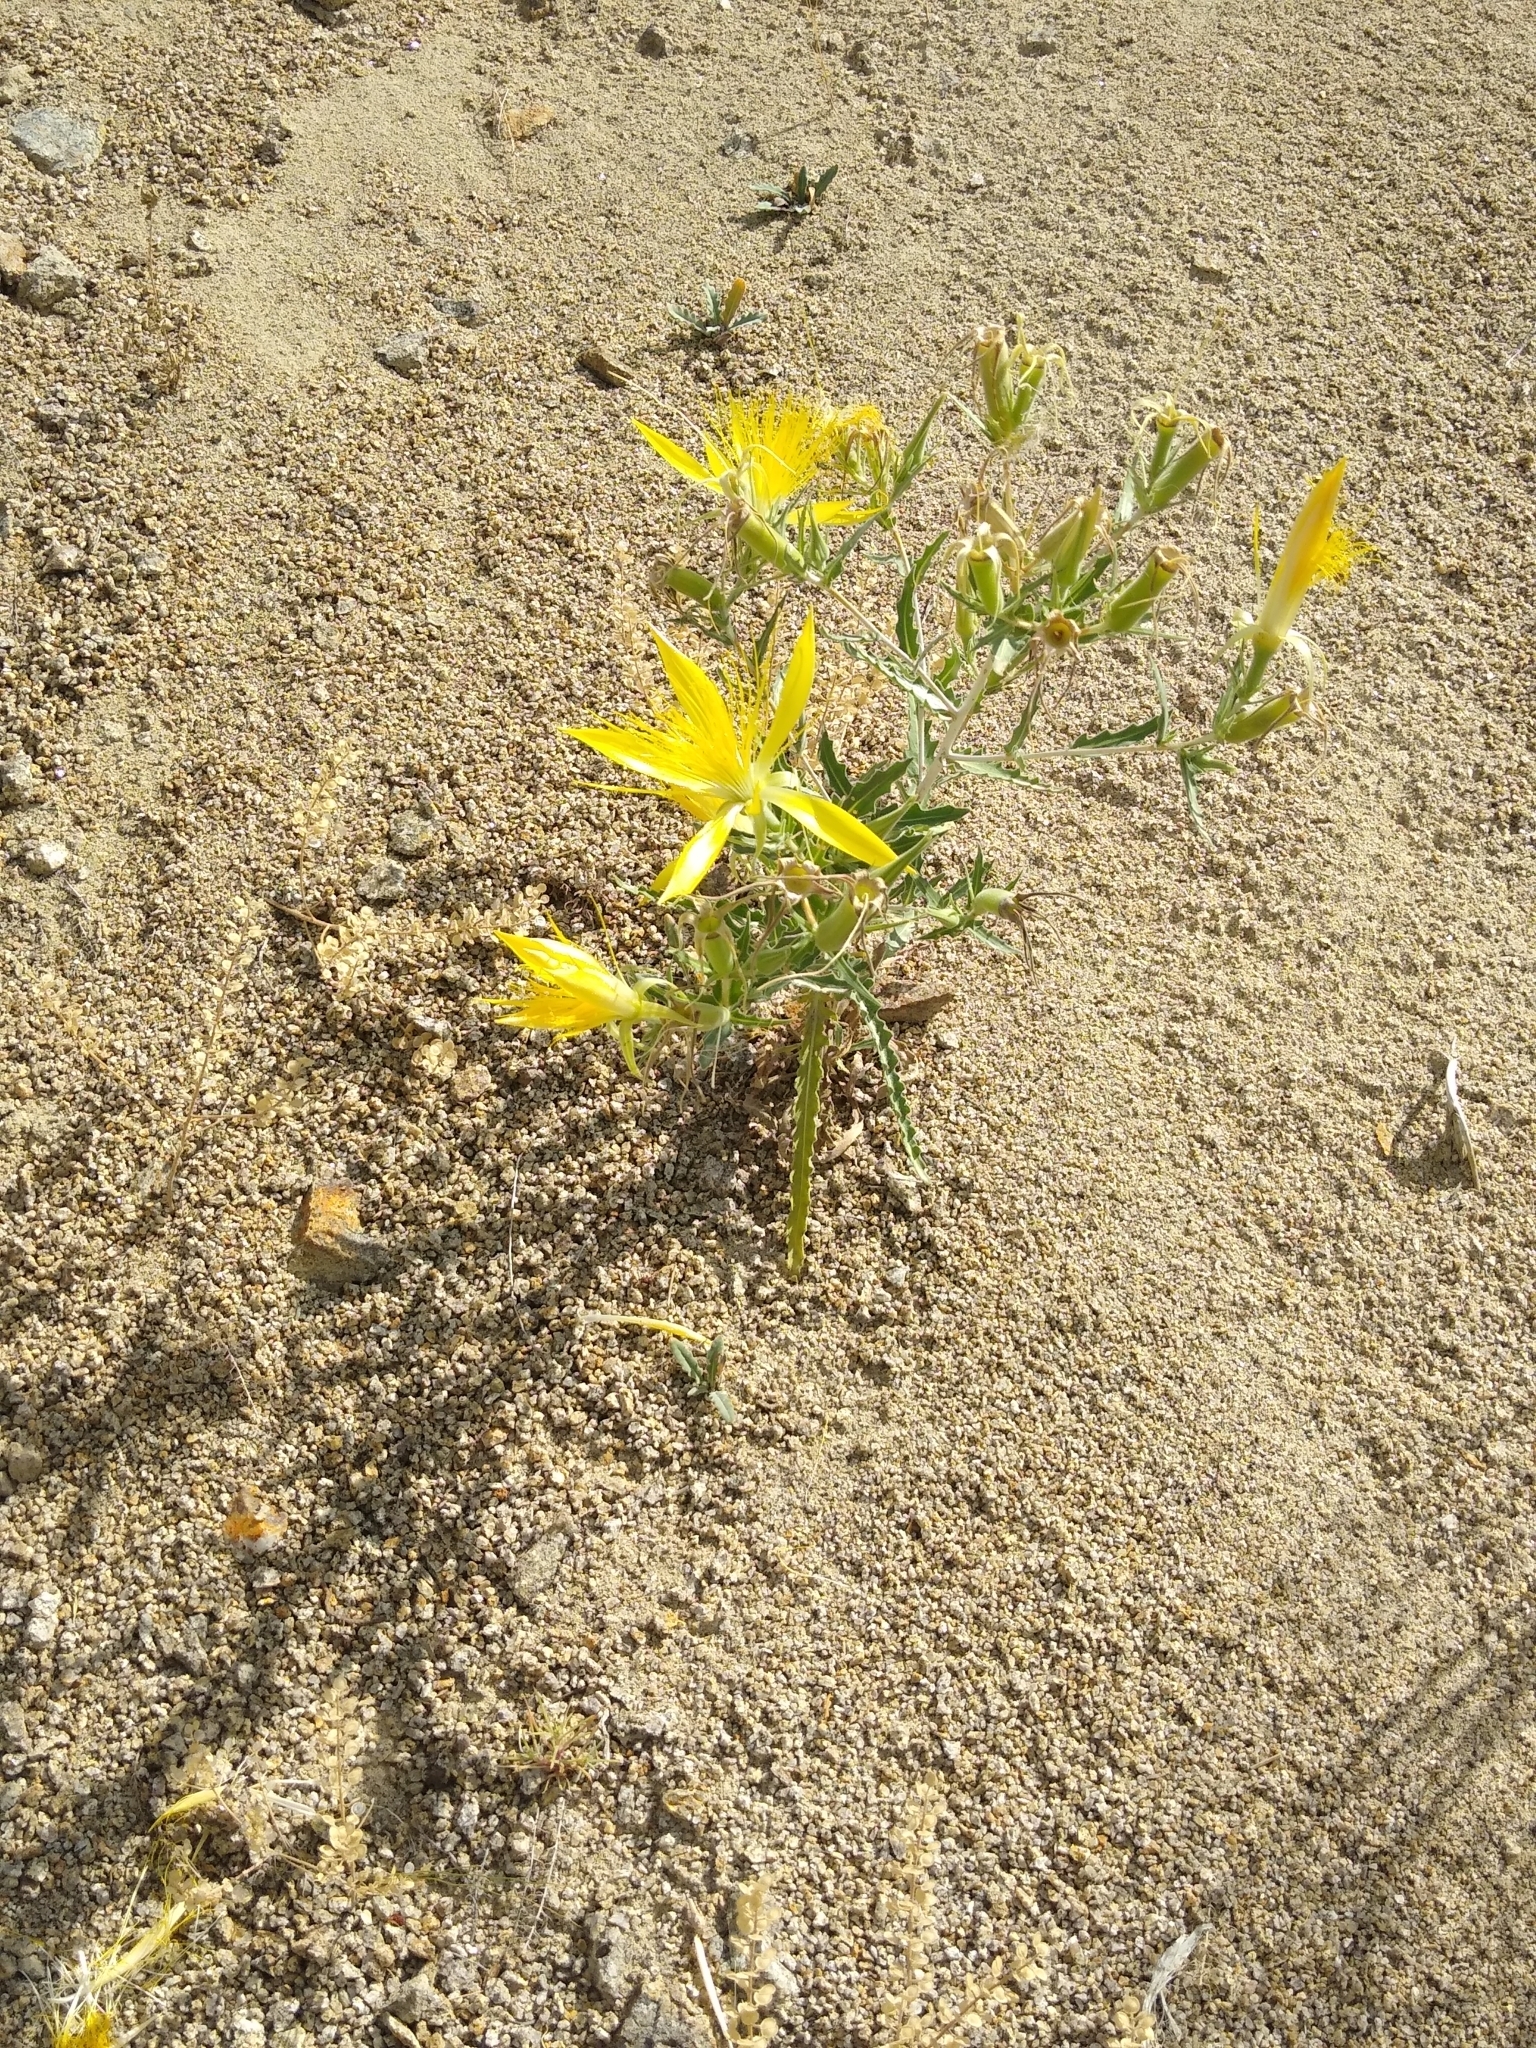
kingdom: Plantae
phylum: Tracheophyta
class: Magnoliopsida
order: Cornales
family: Loasaceae
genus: Mentzelia
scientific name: Mentzelia laevicaulis
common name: Smooth-stem blazingstar
